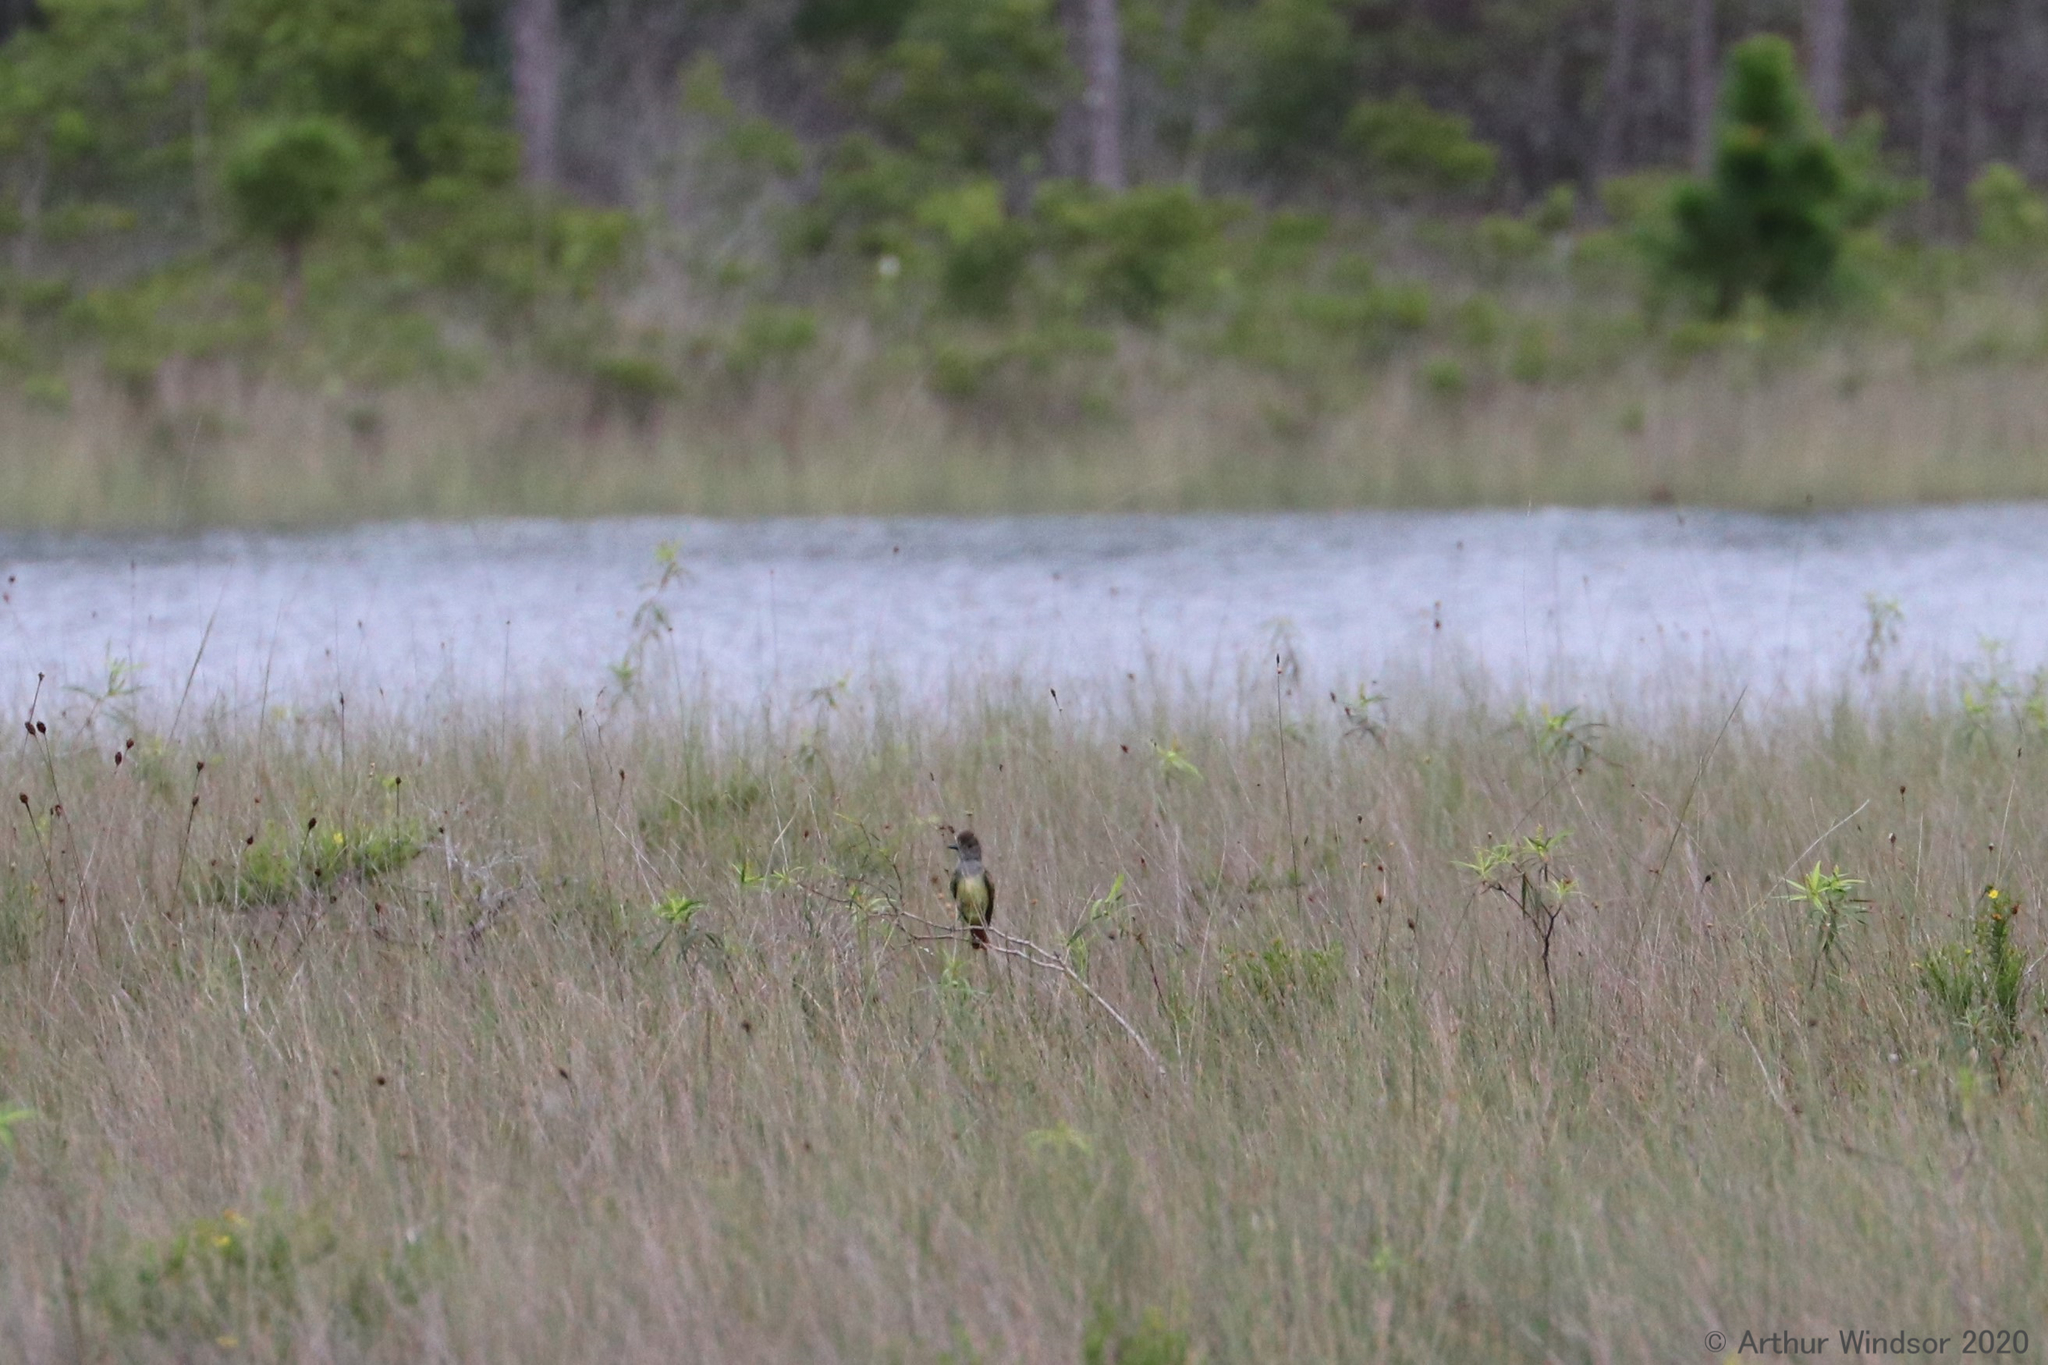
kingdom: Animalia
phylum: Chordata
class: Aves
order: Passeriformes
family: Tyrannidae
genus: Myiarchus
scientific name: Myiarchus crinitus
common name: Great crested flycatcher
